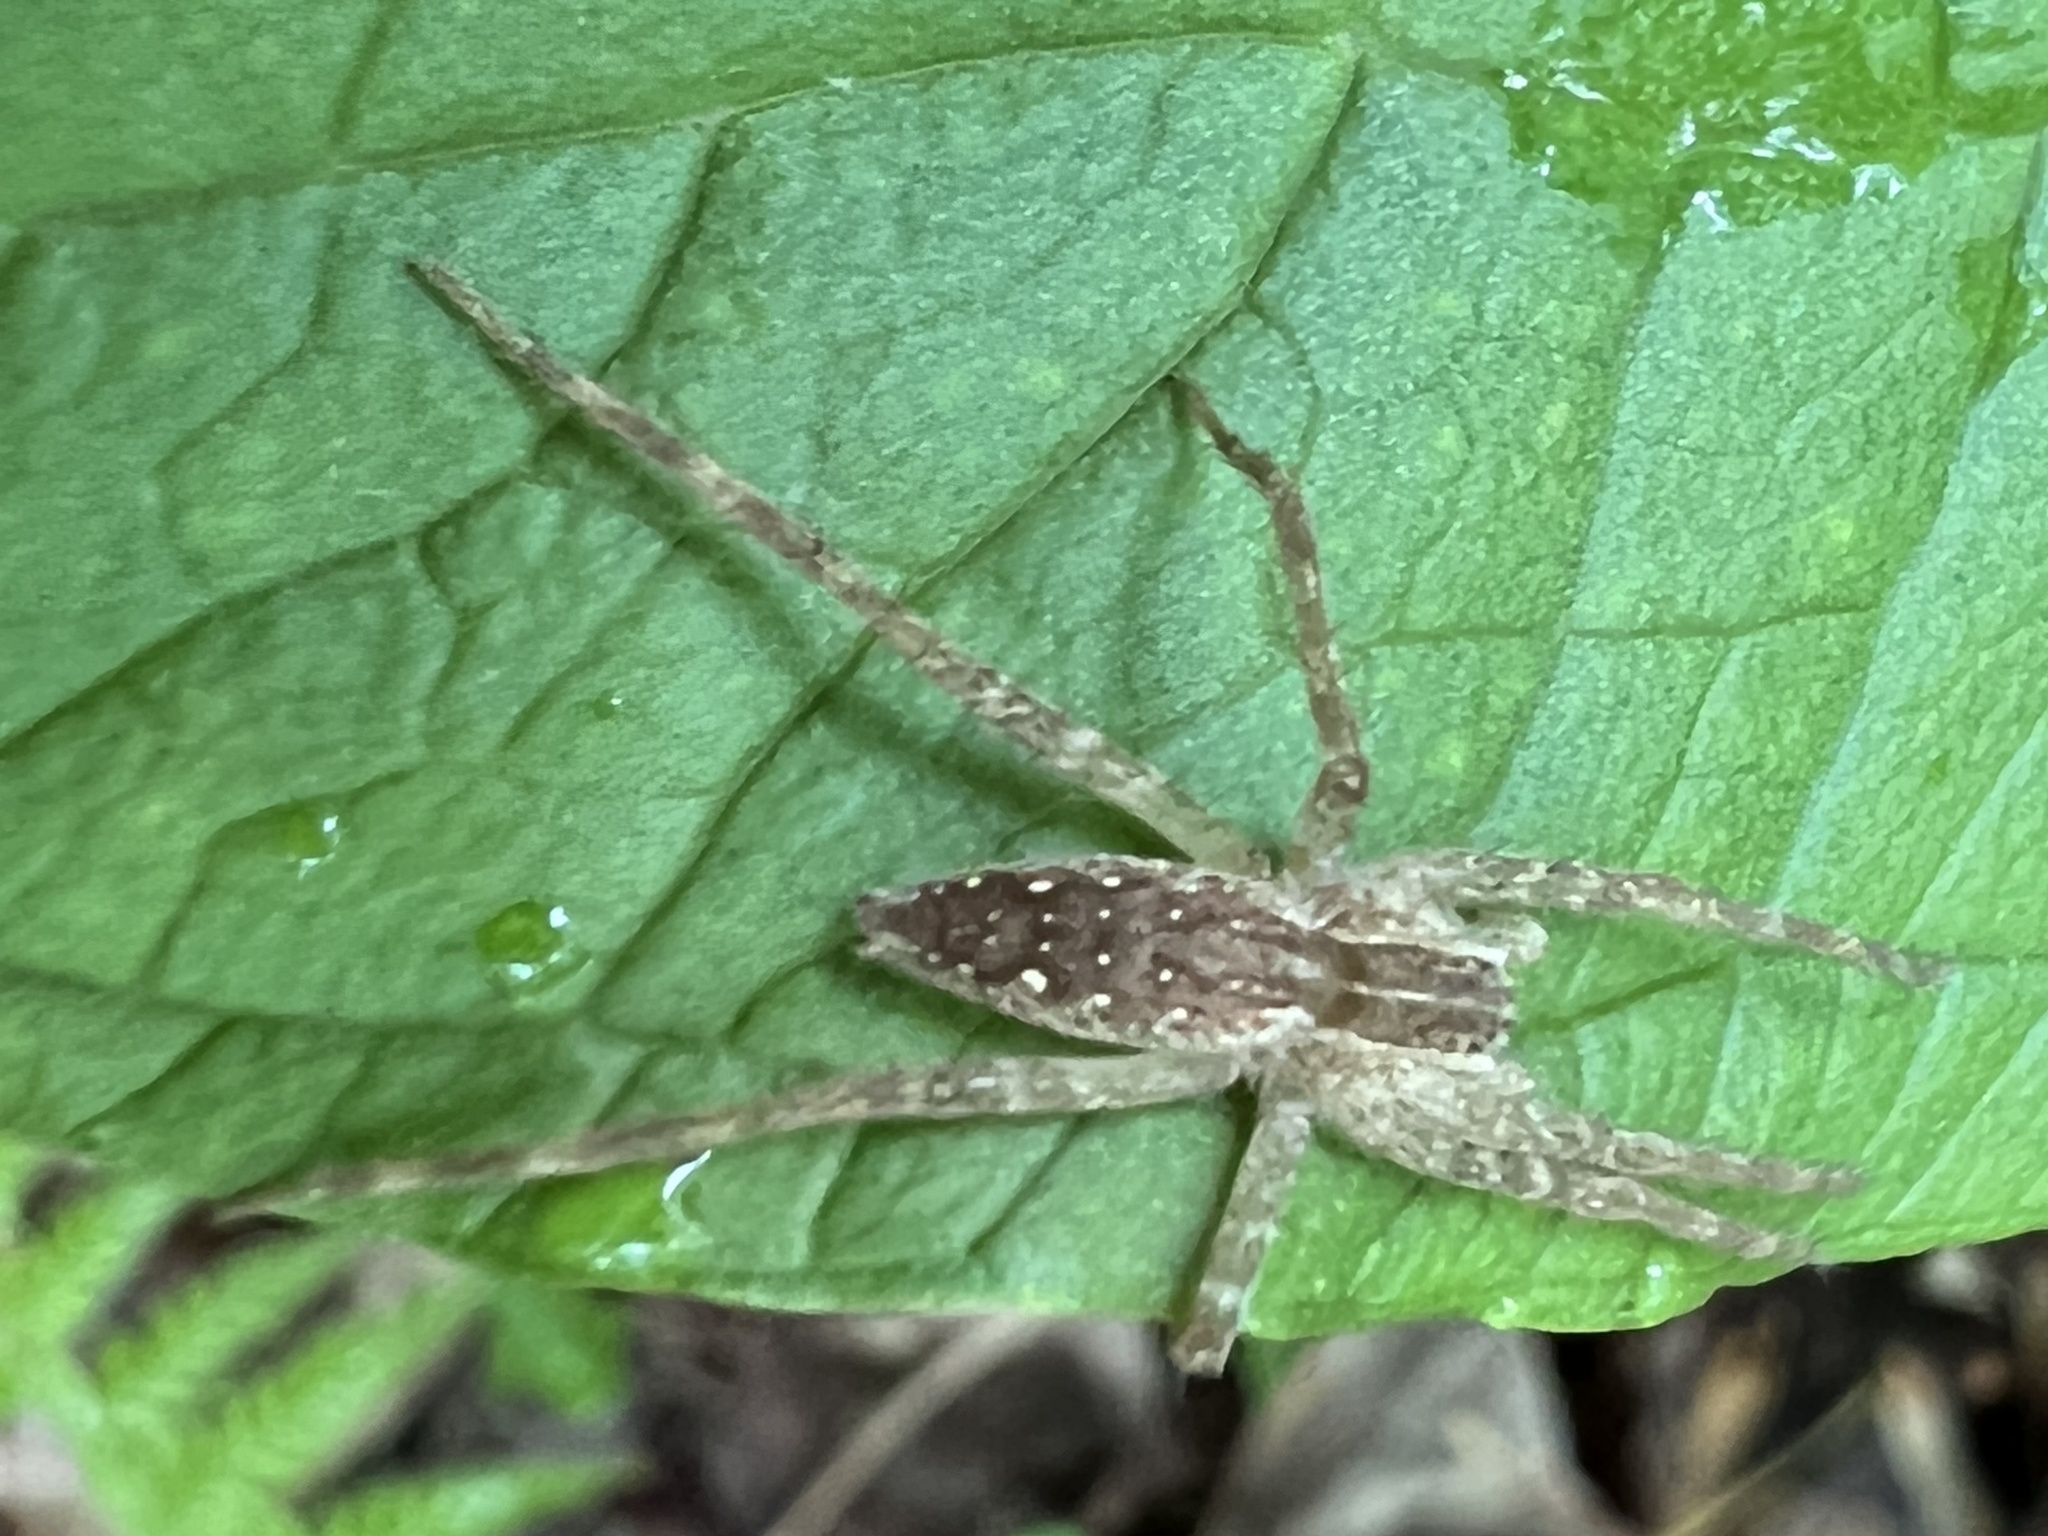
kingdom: Animalia
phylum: Arthropoda
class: Arachnida
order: Araneae
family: Pisauridae
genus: Pisaurina
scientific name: Pisaurina mira
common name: American nursery web spider
